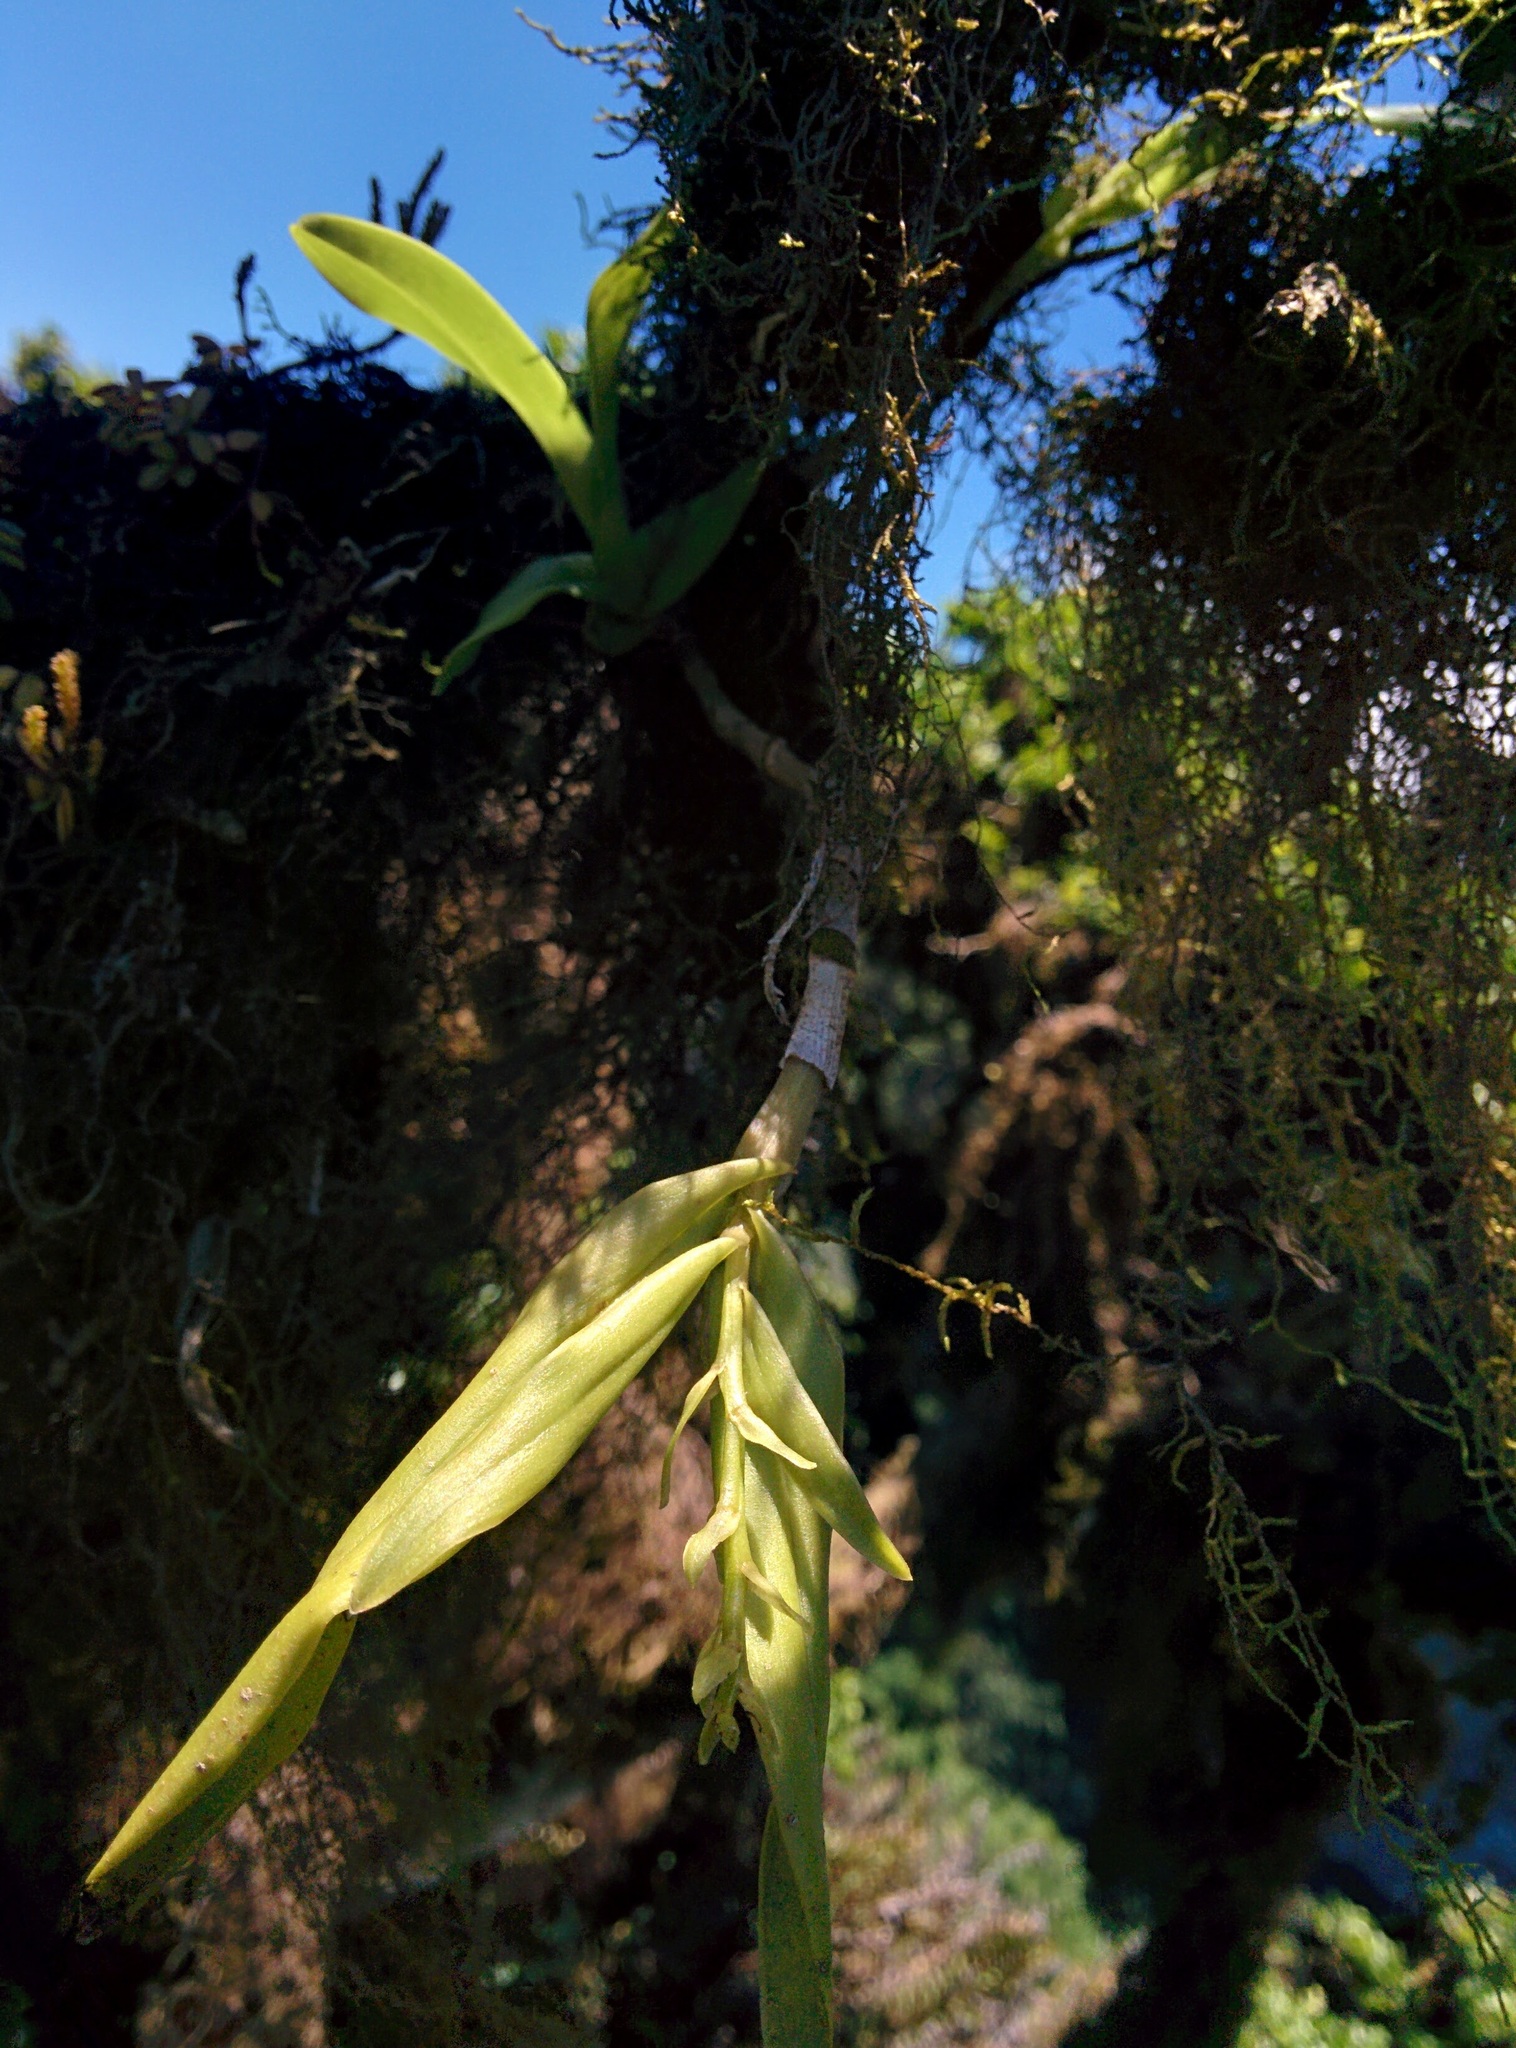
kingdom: Plantae
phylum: Tracheophyta
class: Liliopsida
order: Asparagales
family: Orchidaceae
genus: Epidendrum
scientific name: Epidendrum spicatum
